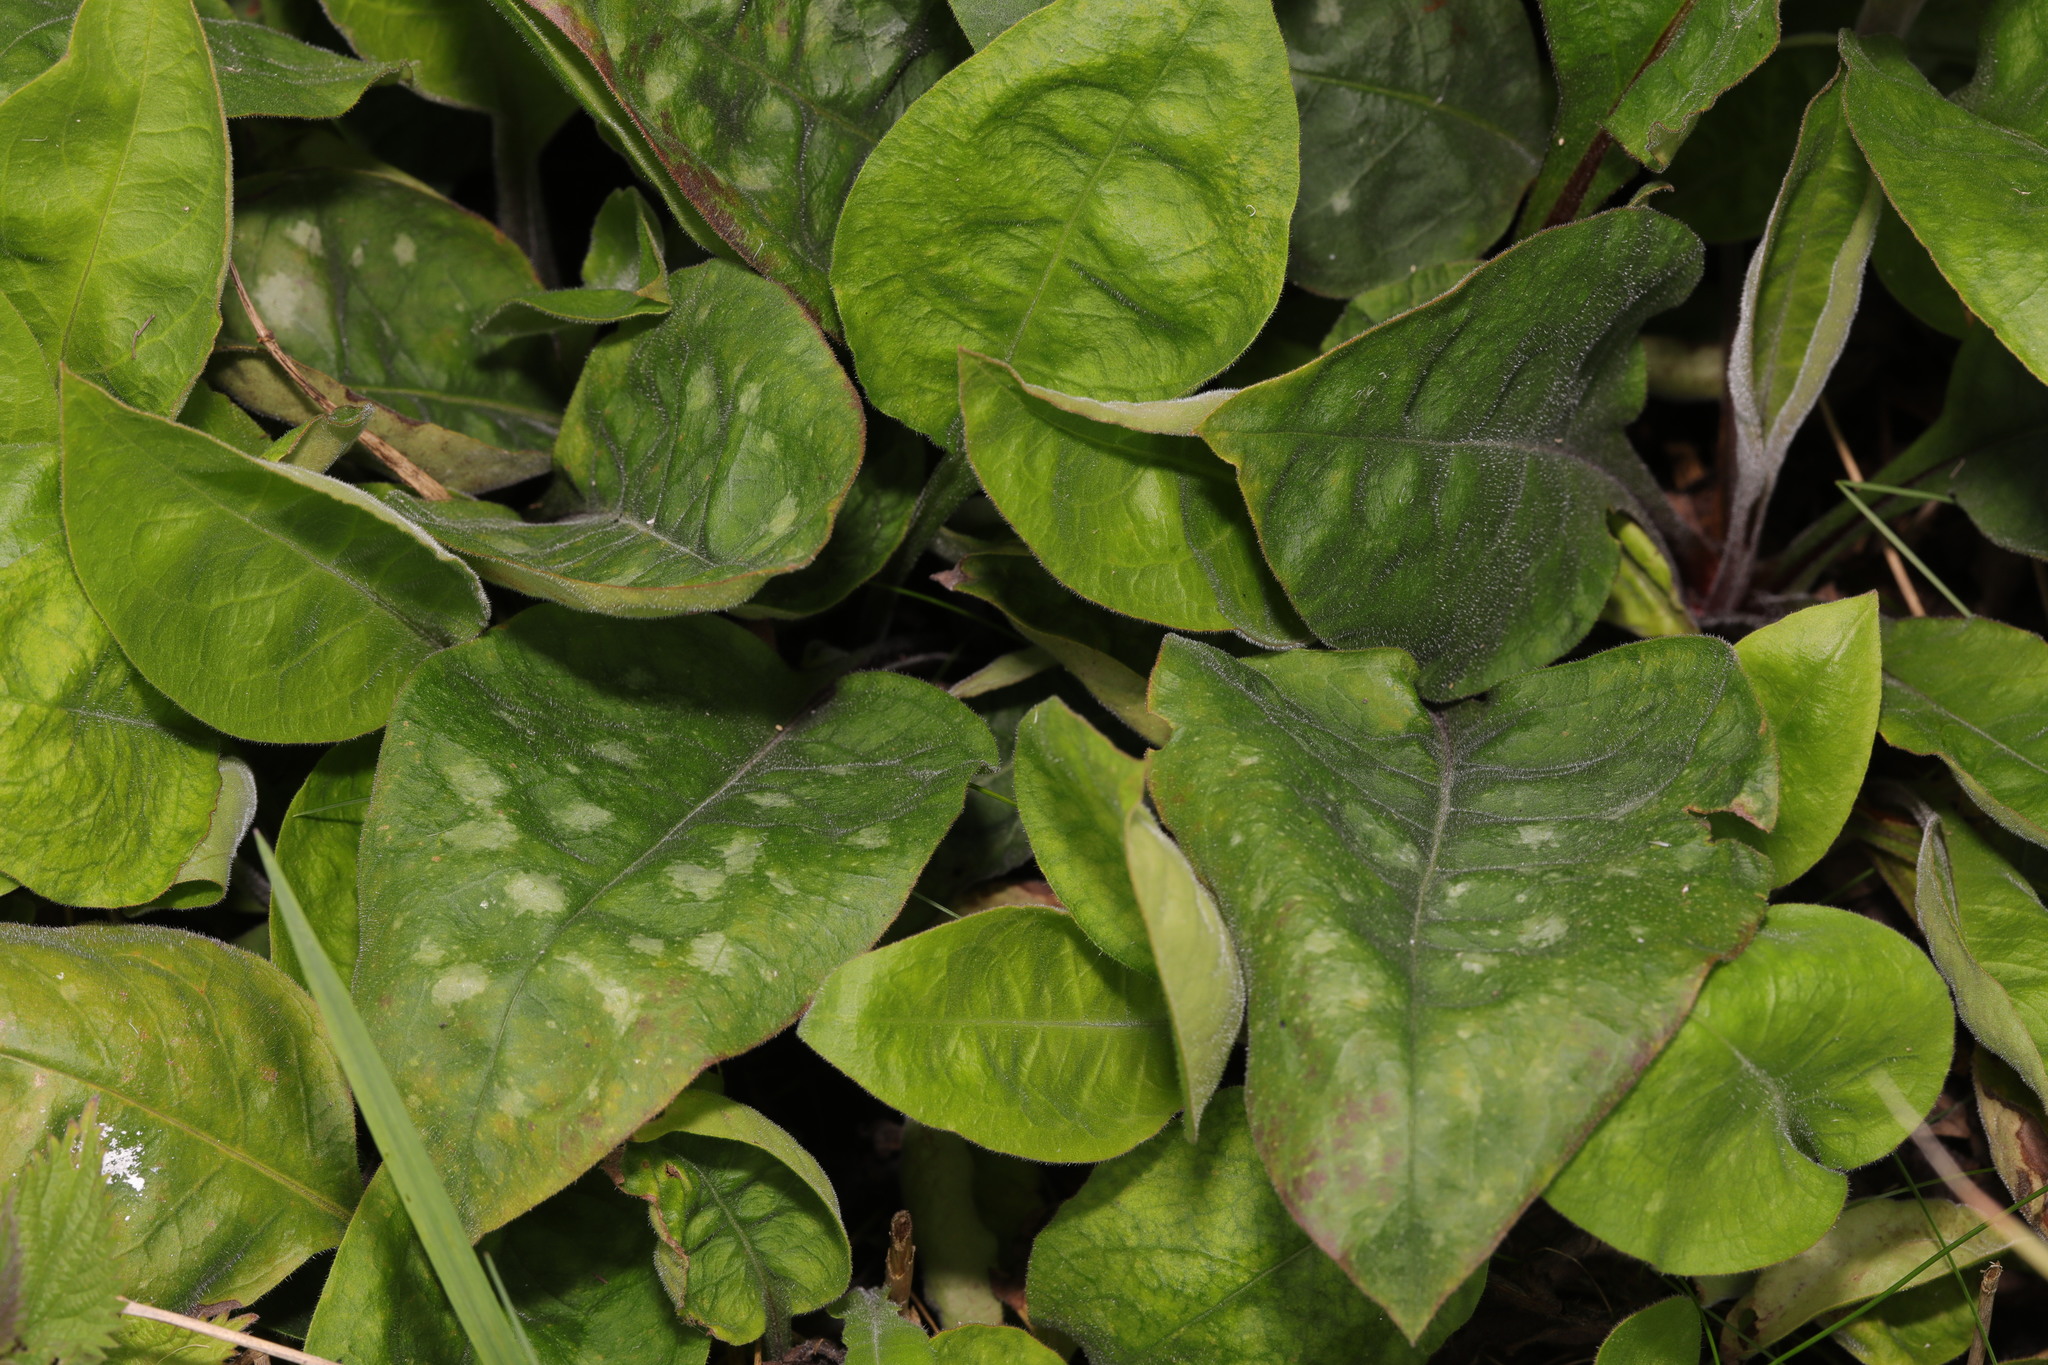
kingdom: Plantae
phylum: Tracheophyta
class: Magnoliopsida
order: Boraginales
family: Boraginaceae
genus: Pulmonaria
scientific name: Pulmonaria officinalis
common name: Lungwort
